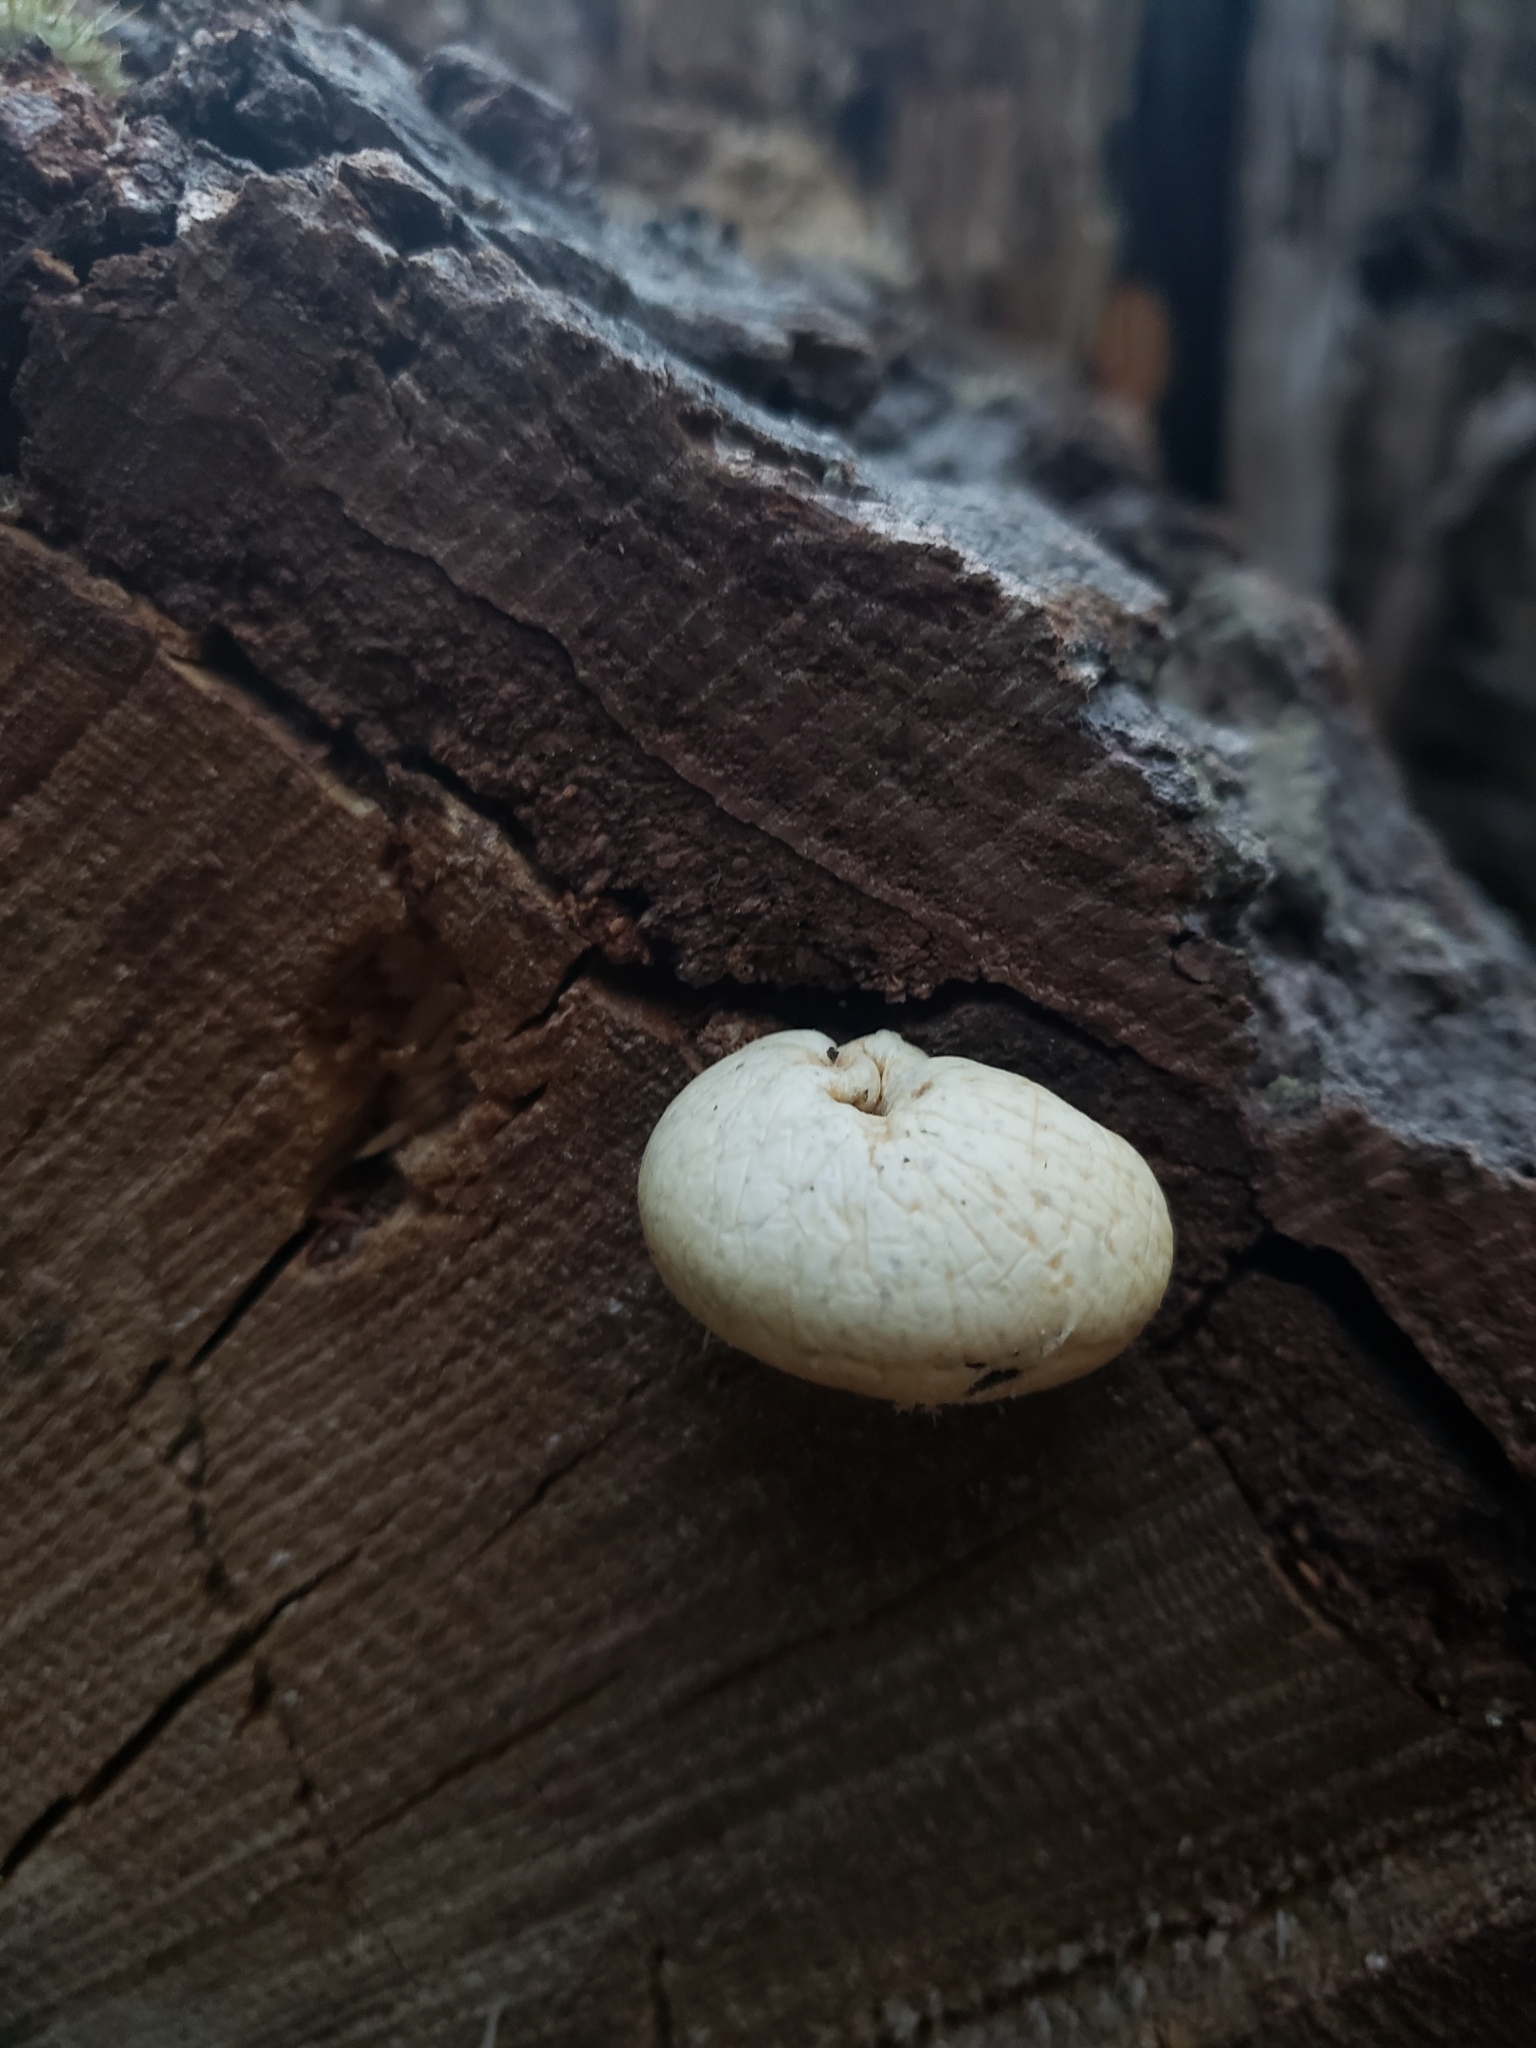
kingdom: Fungi
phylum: Basidiomycota
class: Agaricomycetes
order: Polyporales
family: Polyporaceae
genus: Cryptoporus
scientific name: Cryptoporus volvatus
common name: Veiled polypore
